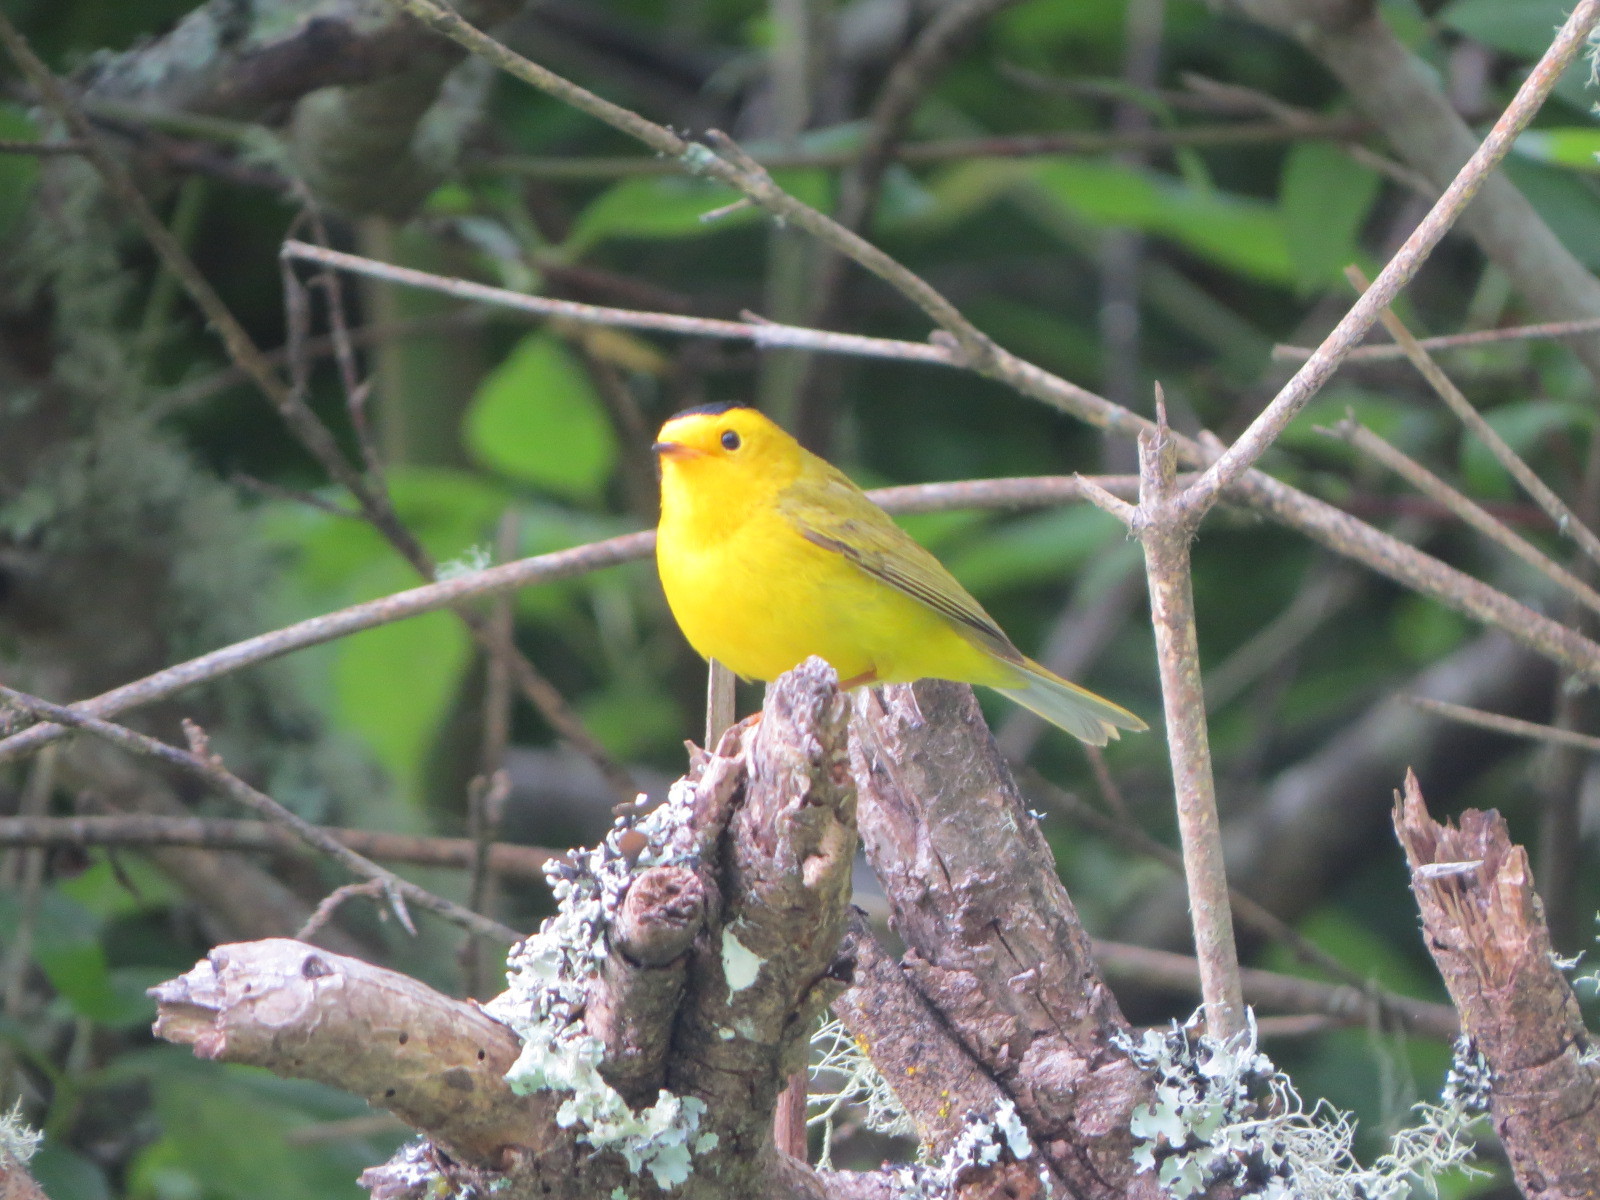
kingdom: Animalia
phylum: Chordata
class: Aves
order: Passeriformes
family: Parulidae
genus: Cardellina
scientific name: Cardellina pusilla
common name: Wilson's warbler
